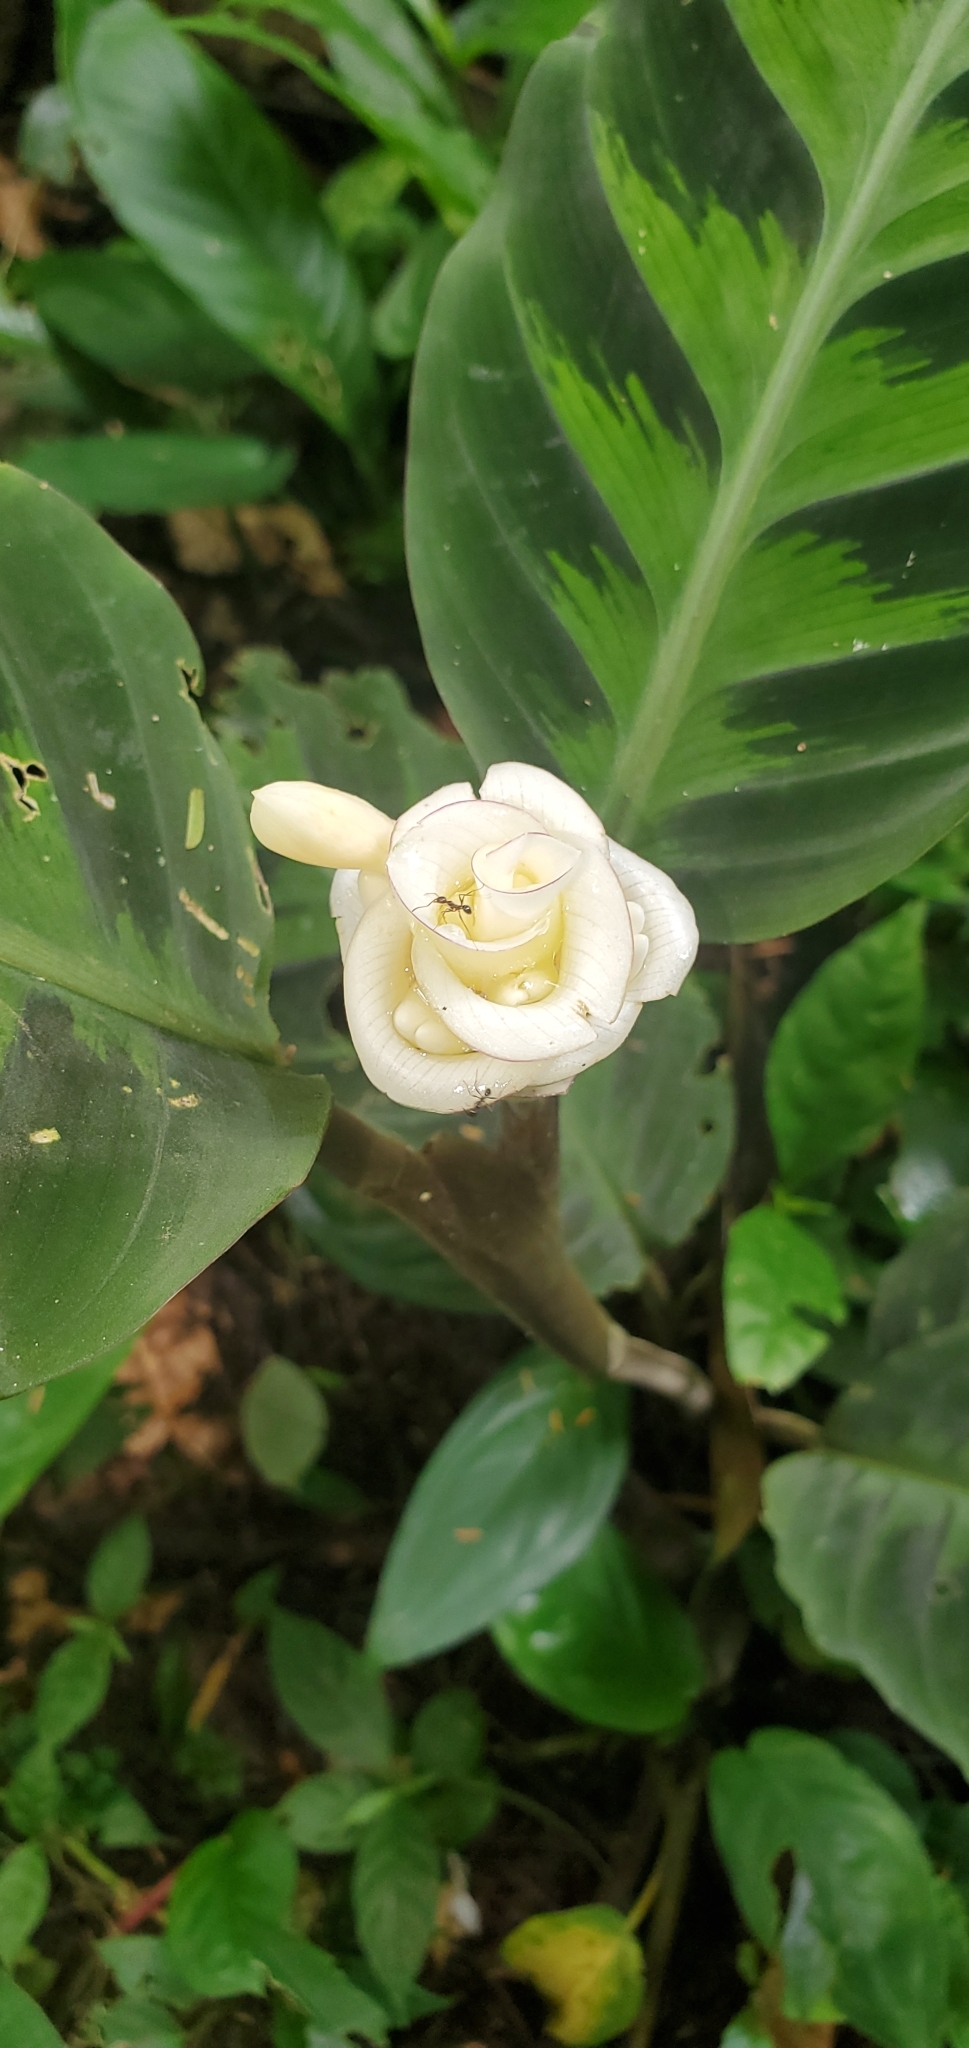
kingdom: Plantae
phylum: Tracheophyta
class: Liliopsida
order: Zingiberales
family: Marantaceae
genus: Goeppertia
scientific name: Goeppertia warszewiczii
